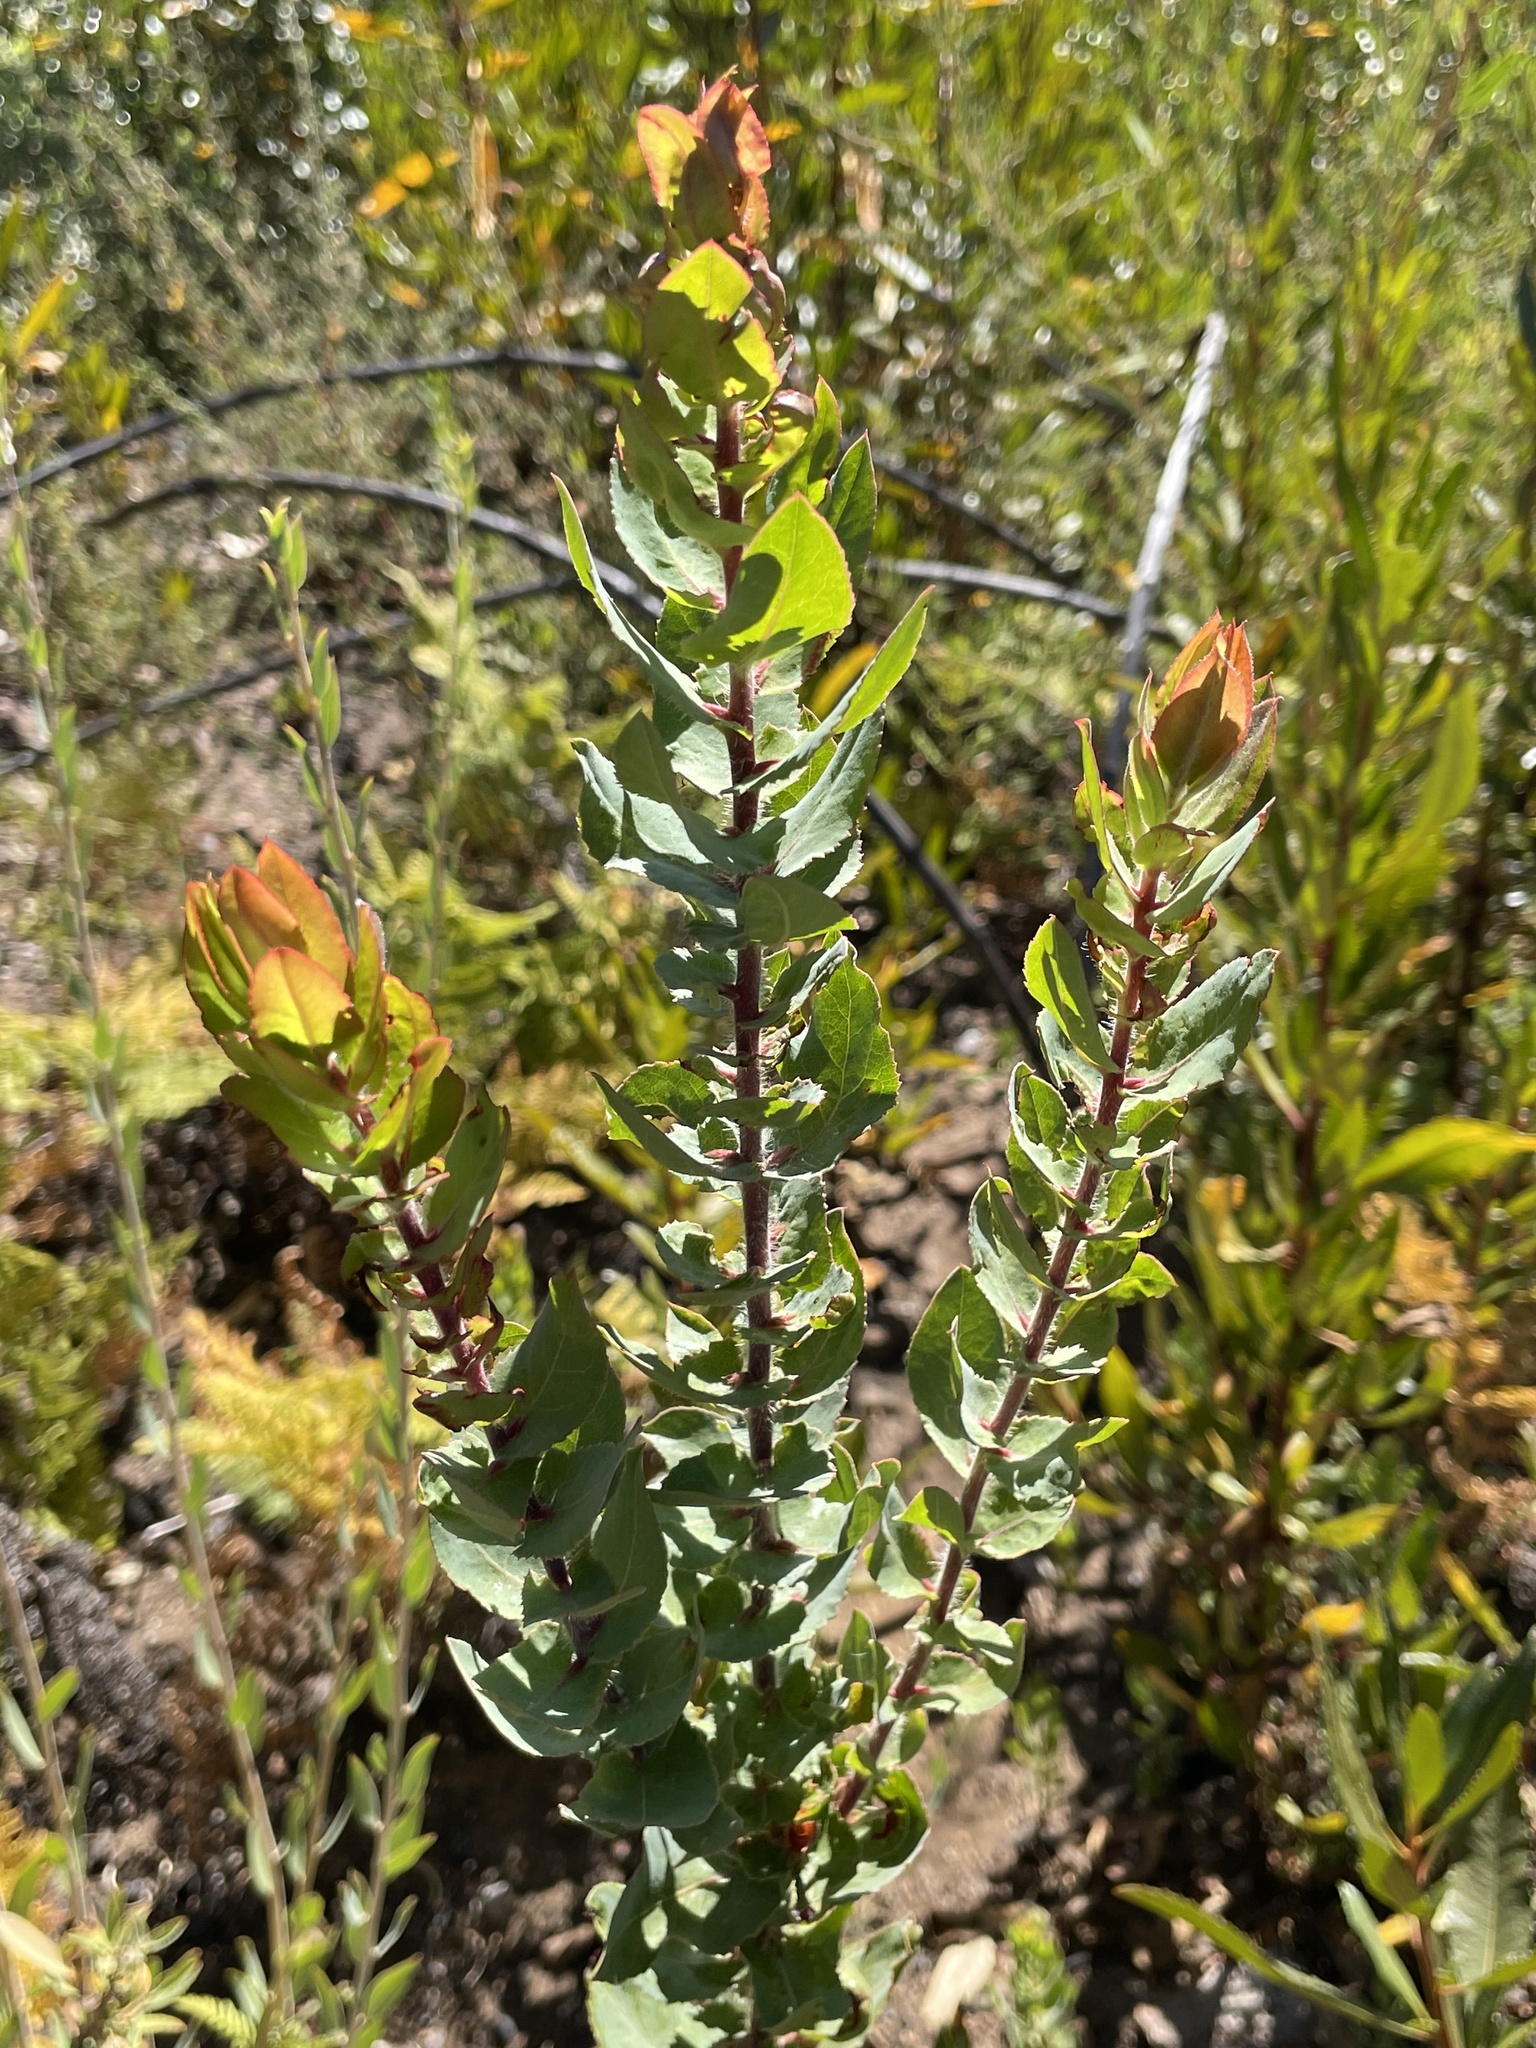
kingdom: Plantae
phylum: Tracheophyta
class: Magnoliopsida
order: Ericales
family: Ericaceae
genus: Arctostaphylos
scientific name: Arctostaphylos andersonii
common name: Santa cruz manzanita
